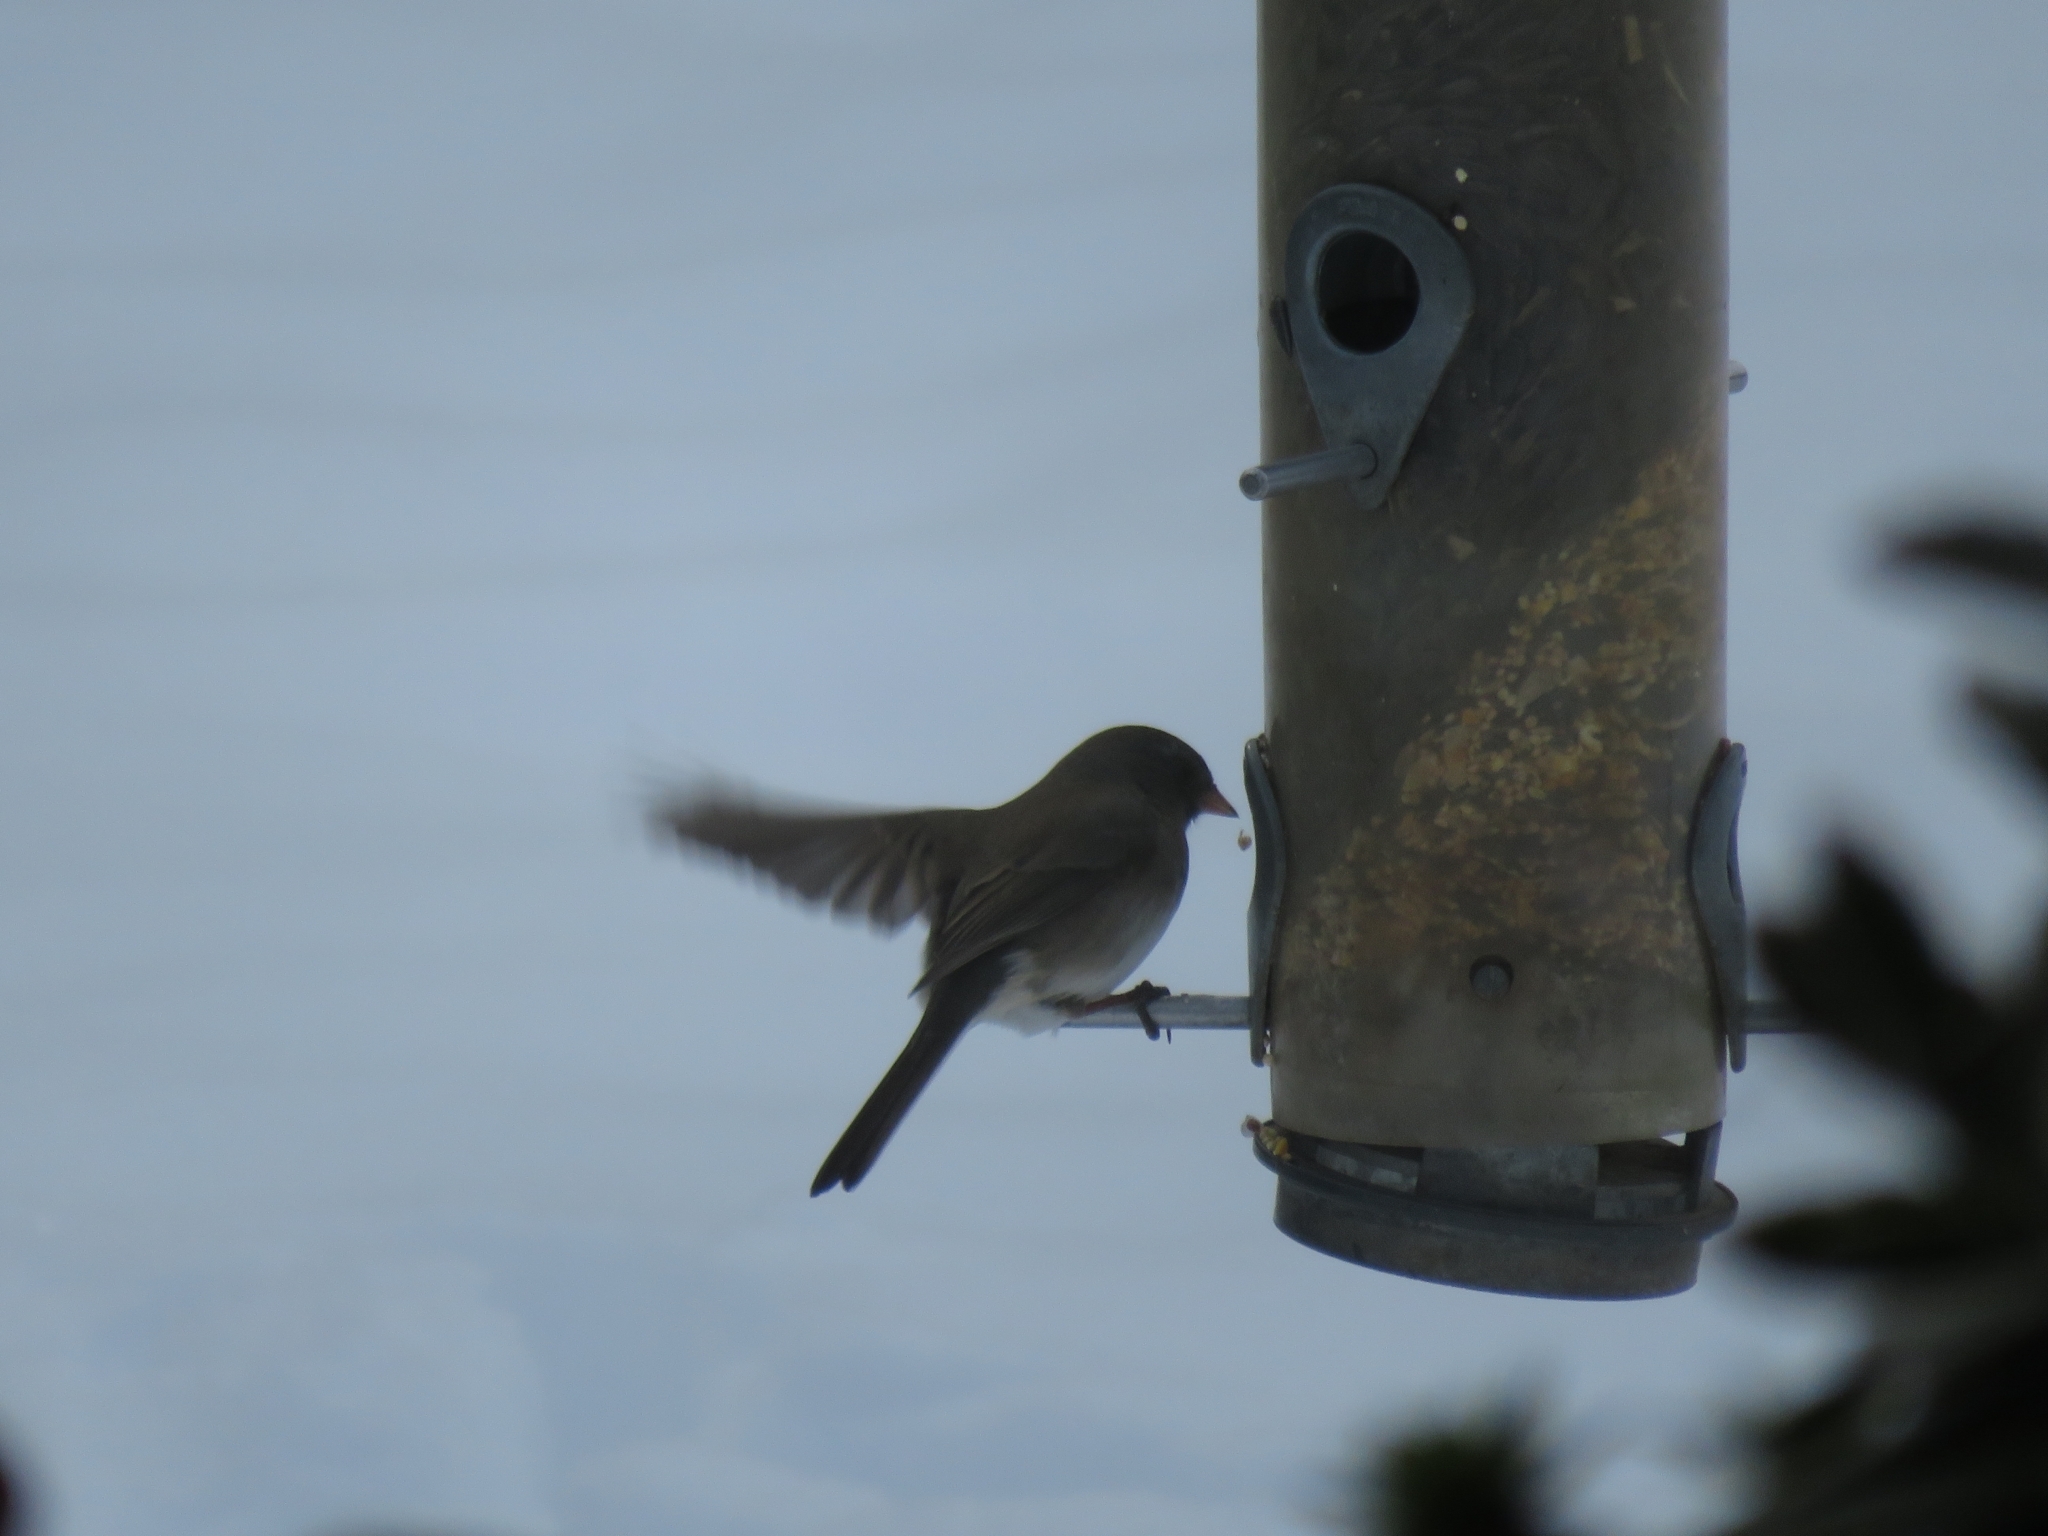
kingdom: Animalia
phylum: Chordata
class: Aves
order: Passeriformes
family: Passerellidae
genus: Junco
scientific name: Junco hyemalis
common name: Dark-eyed junco
